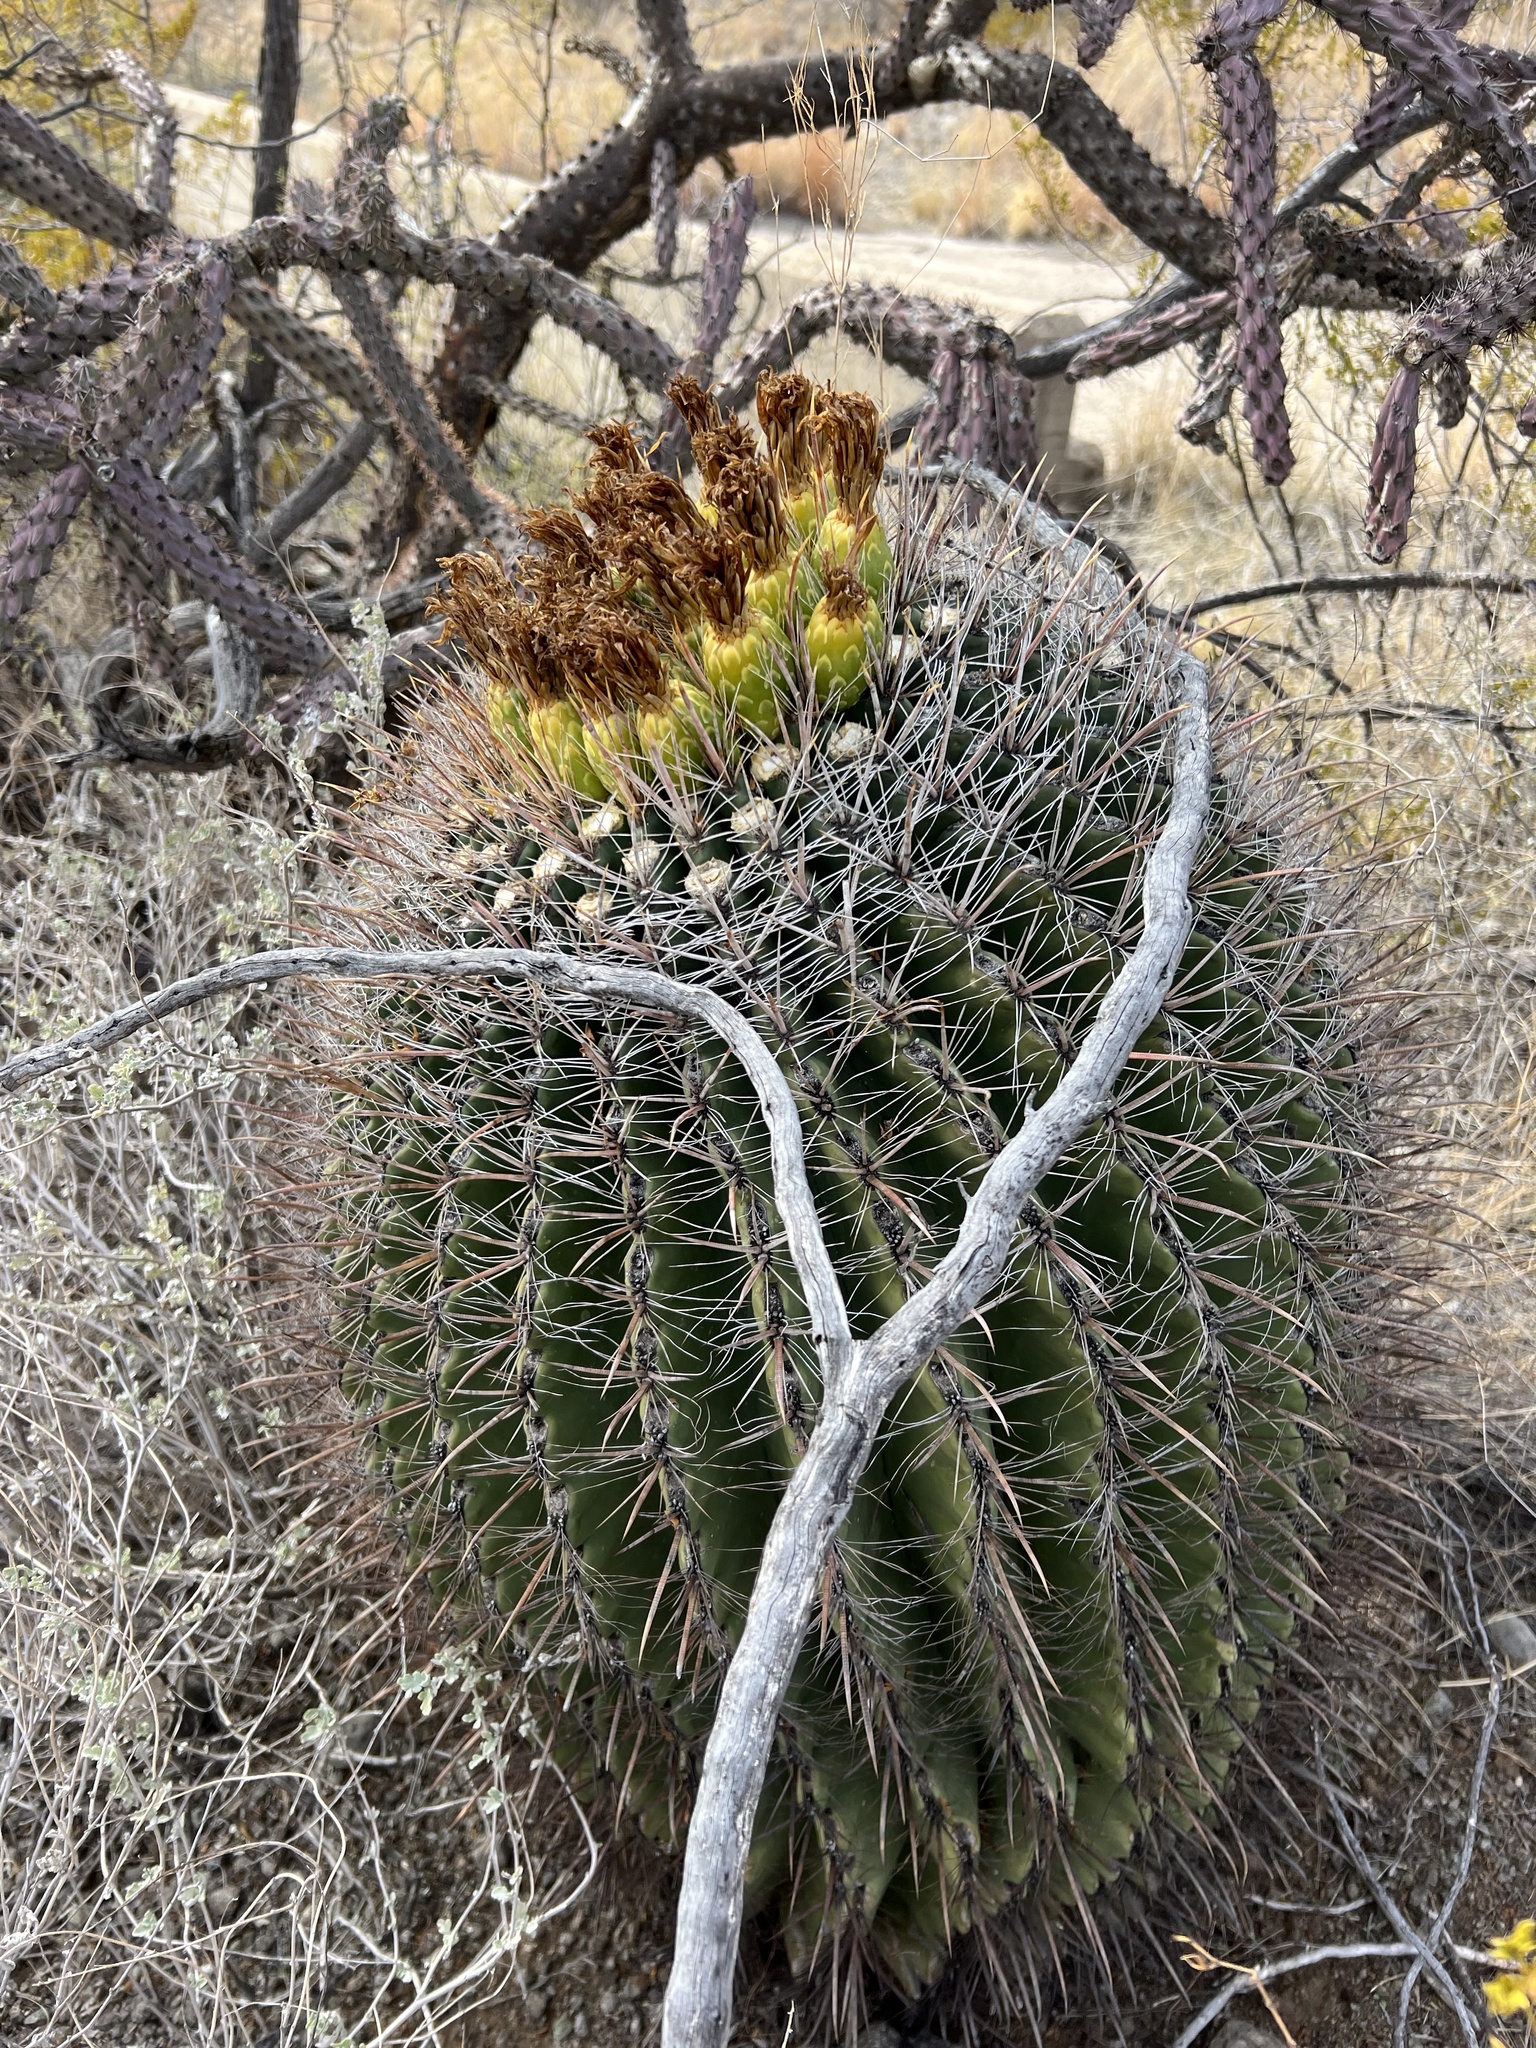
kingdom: Plantae
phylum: Tracheophyta
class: Magnoliopsida
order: Caryophyllales
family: Cactaceae
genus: Ferocactus
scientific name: Ferocactus wislizeni
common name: Candy barrel cactus
